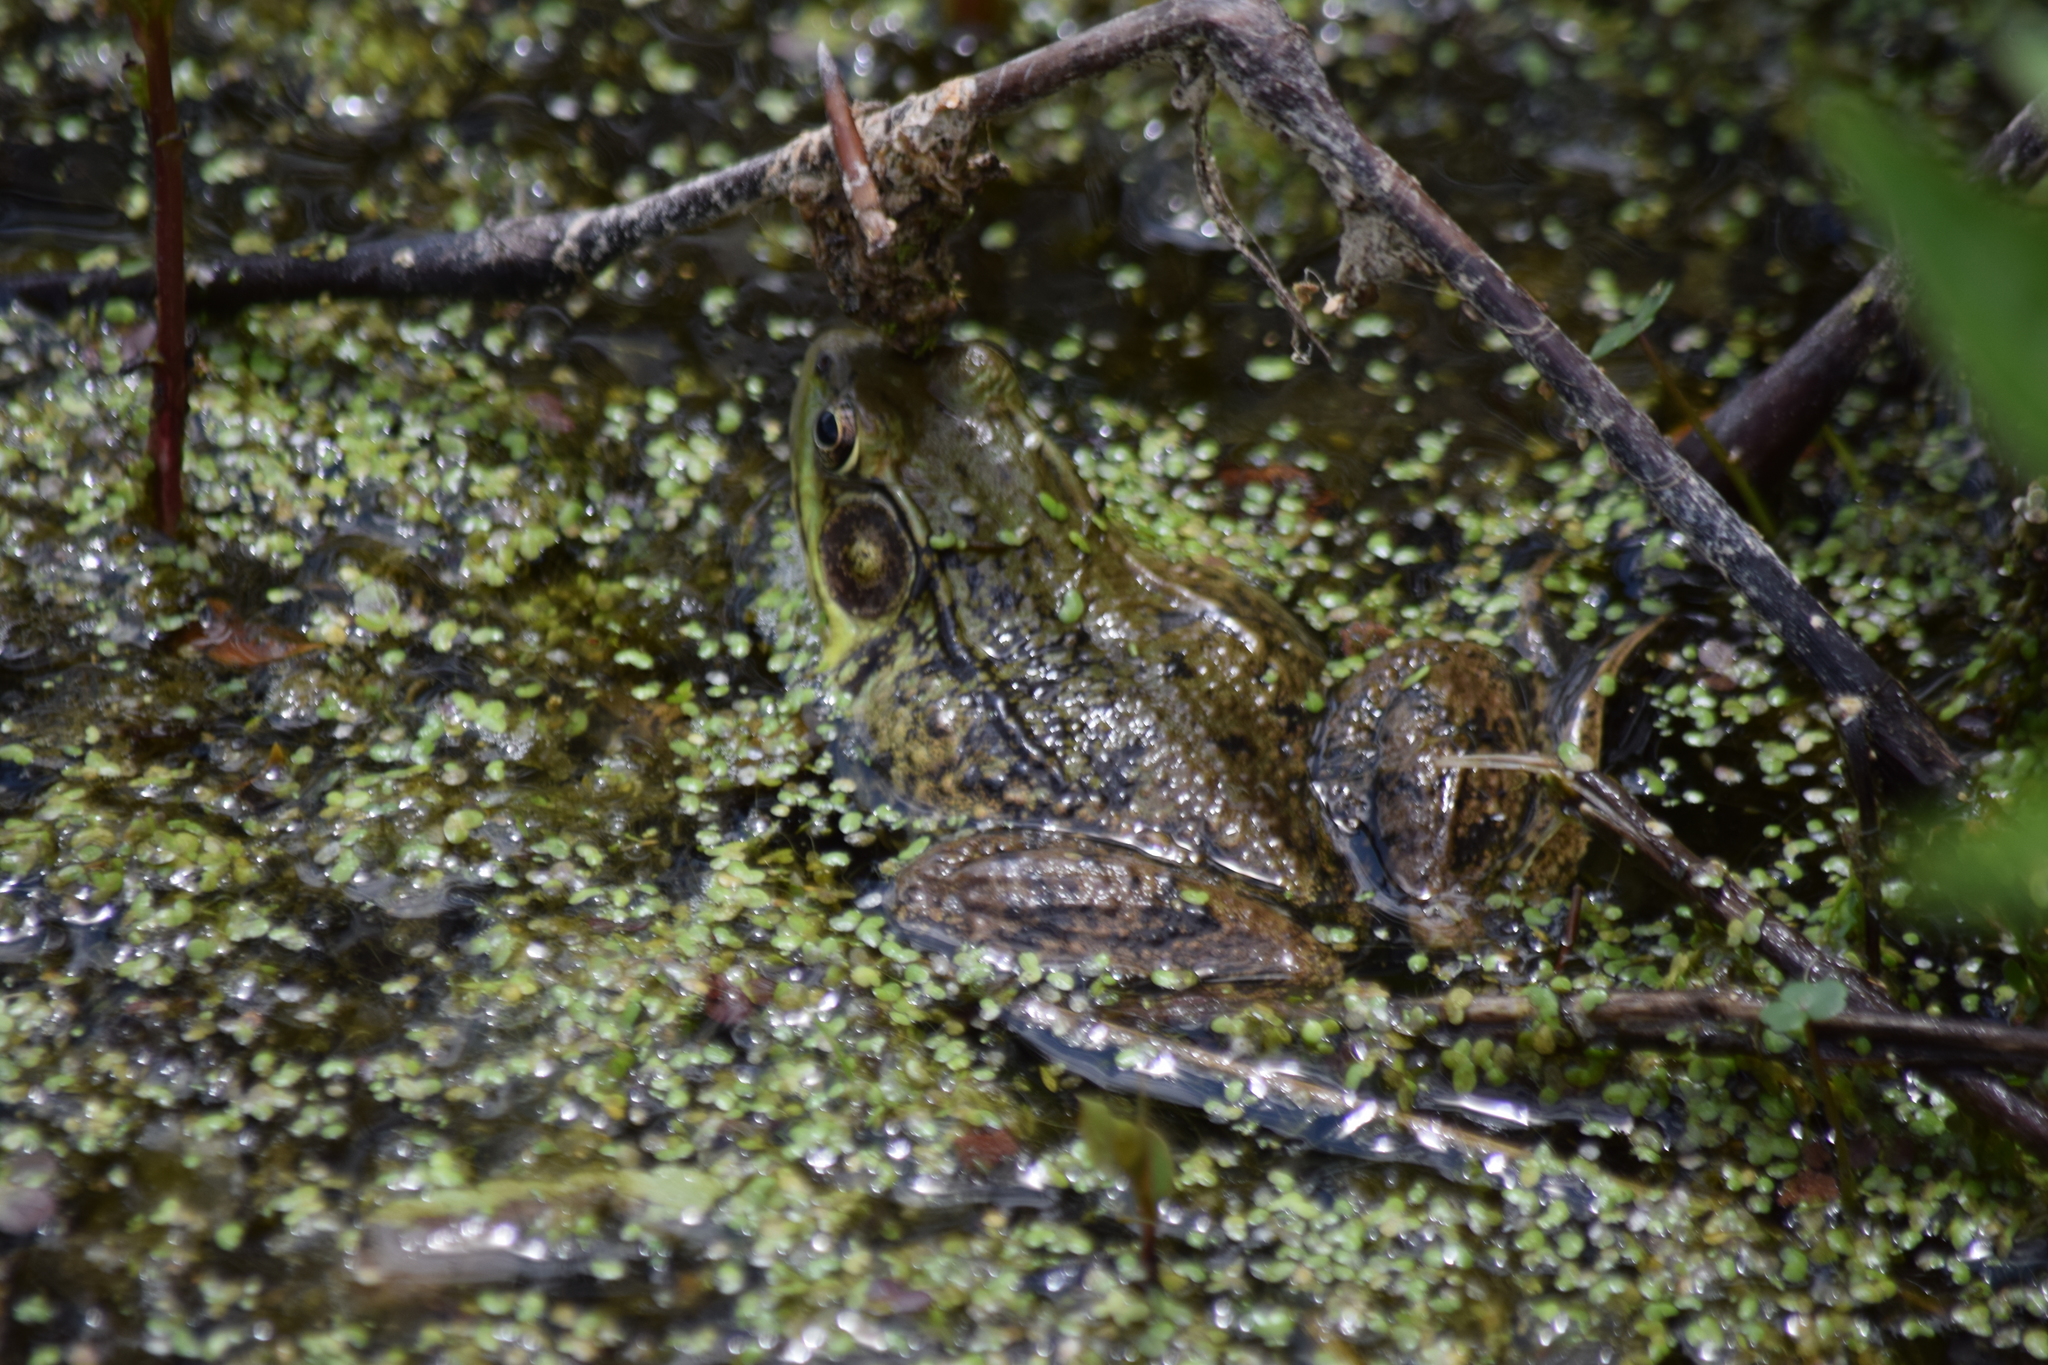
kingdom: Animalia
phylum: Chordata
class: Amphibia
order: Anura
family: Ranidae
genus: Lithobates
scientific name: Lithobates clamitans
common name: Green frog
